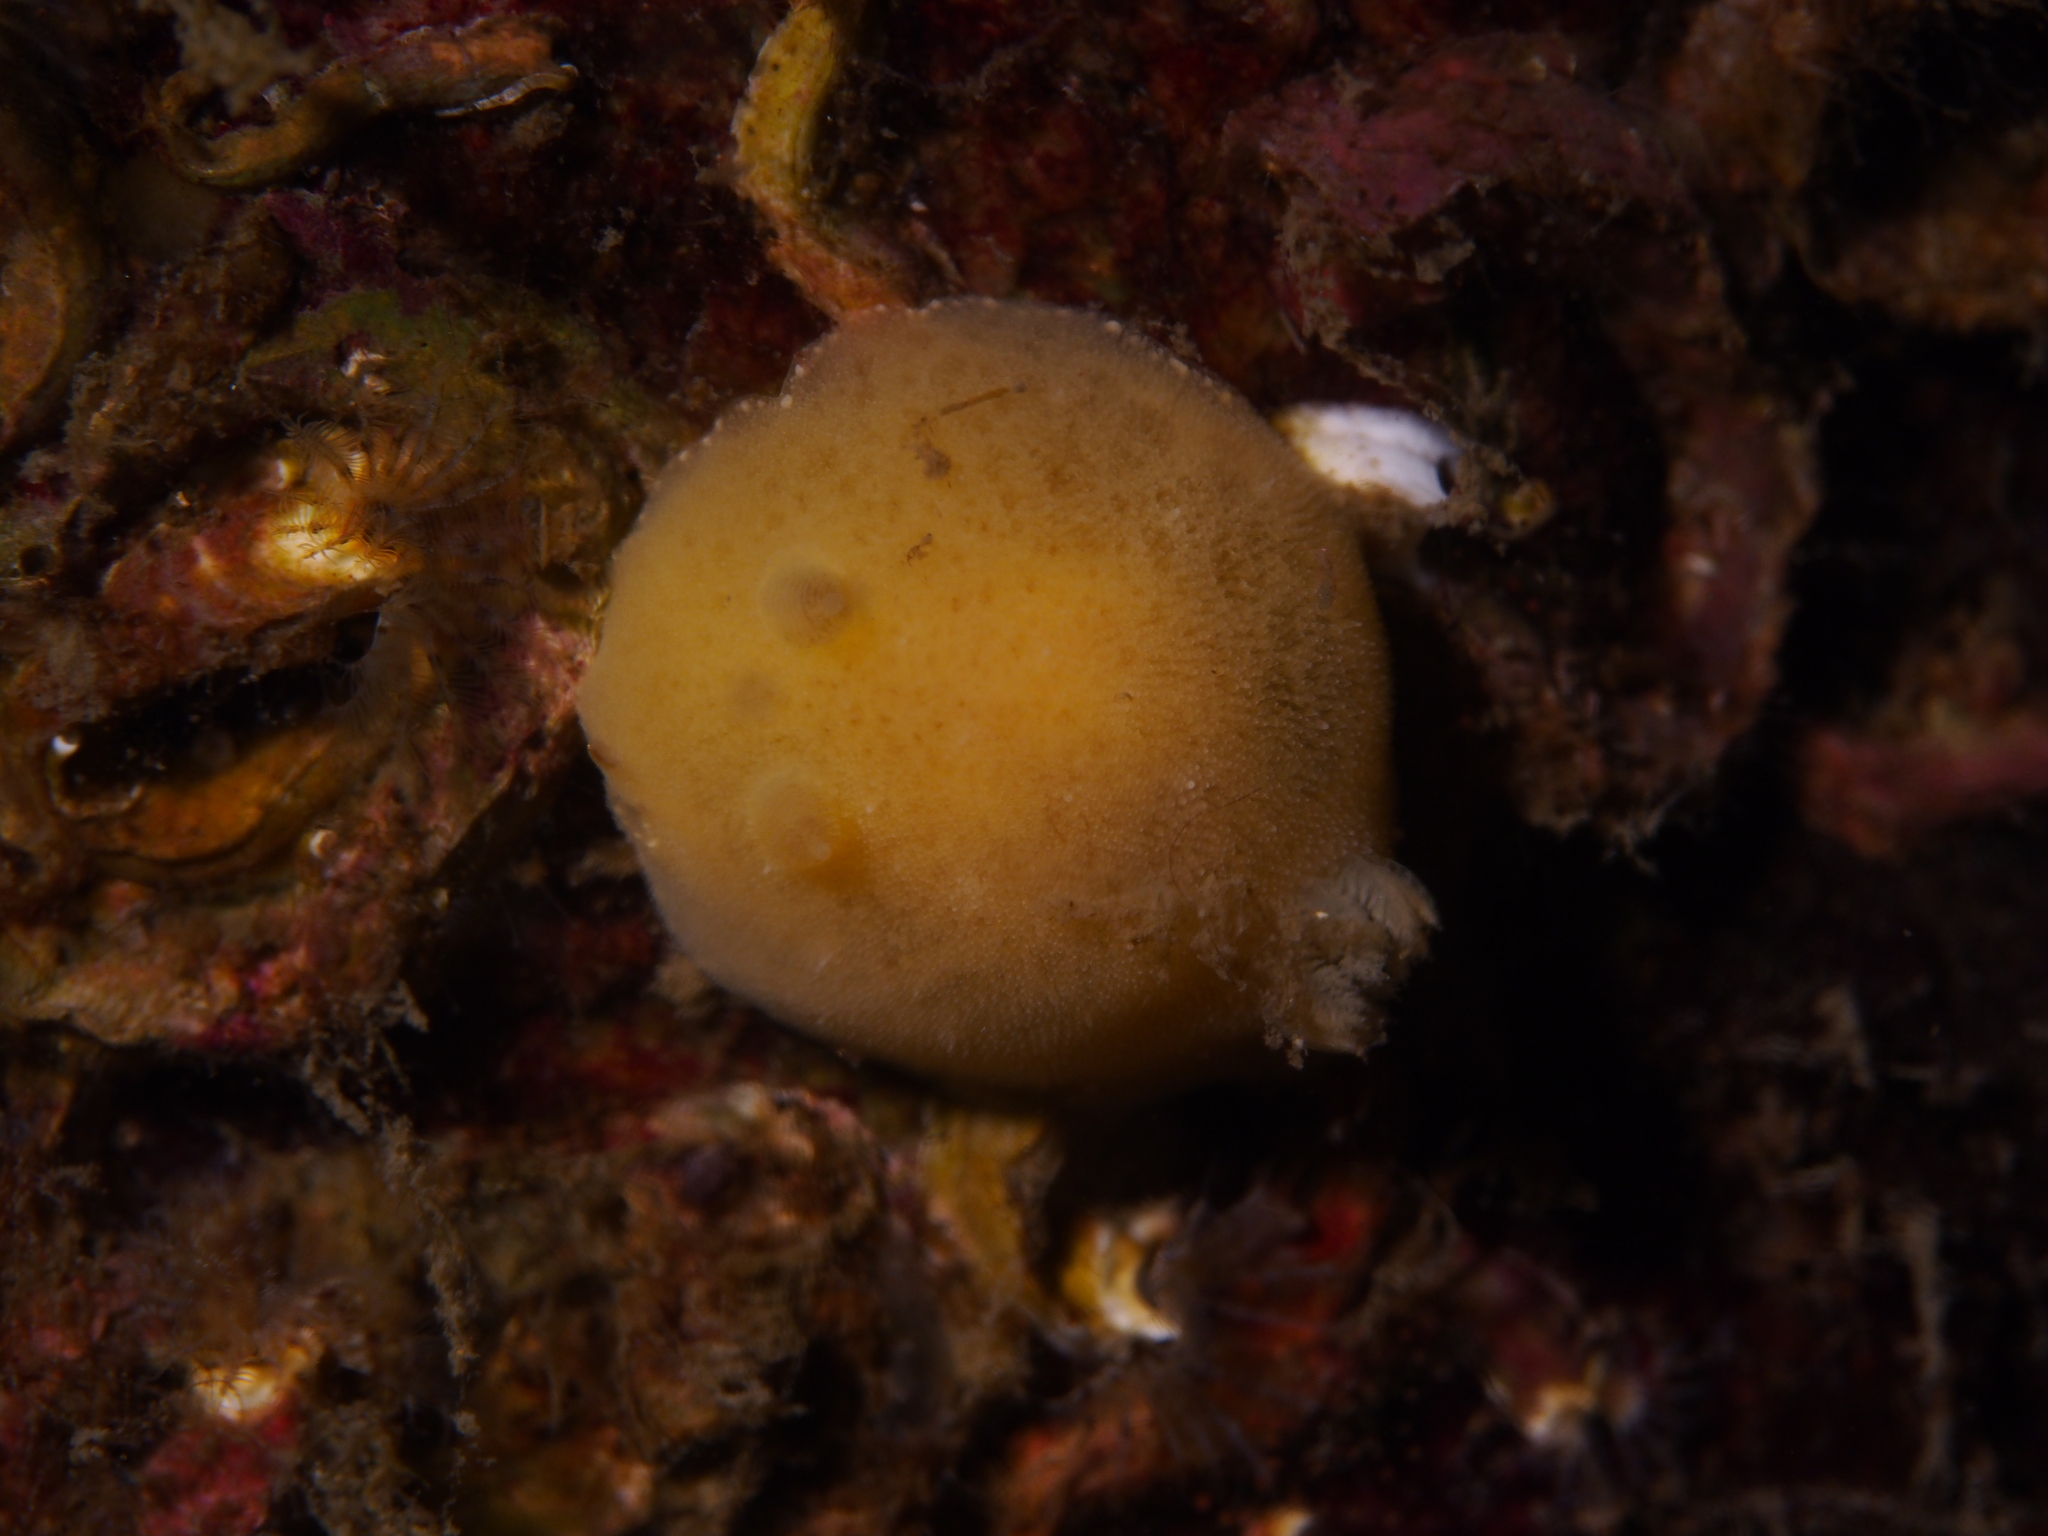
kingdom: Animalia
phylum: Mollusca
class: Gastropoda
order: Nudibranchia
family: Discodorididae
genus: Jorunna
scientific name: Jorunna tomentosa
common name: Grey sea slug
